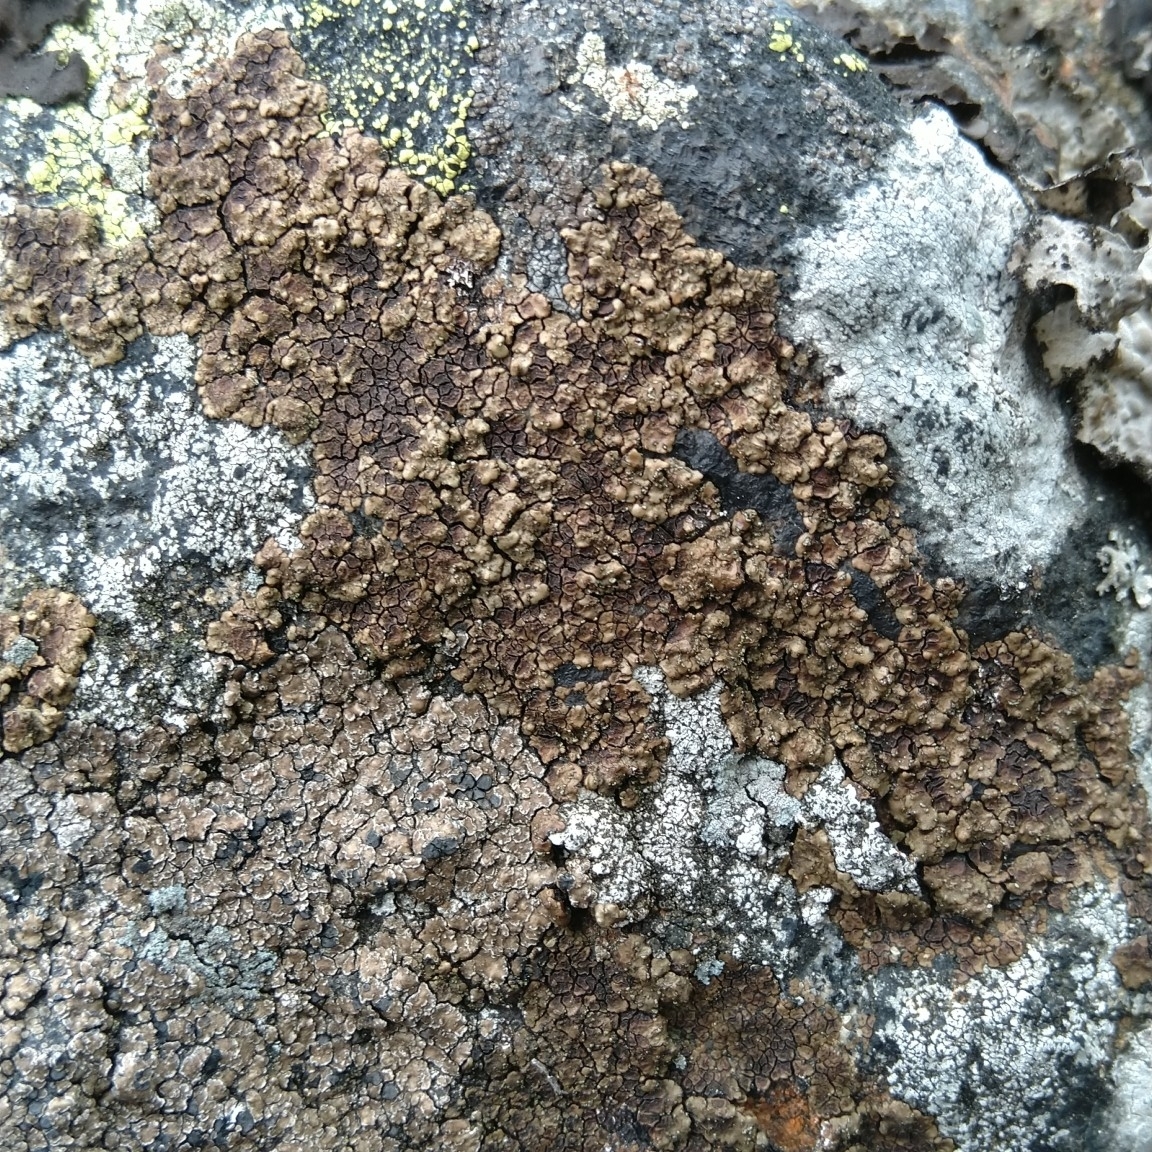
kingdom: Fungi
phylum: Ascomycota
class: Lecanoromycetes
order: Acarosporales
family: Acarosporaceae
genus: Acarospora
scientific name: Acarospora fuscata
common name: Brown cobblestone lichen
